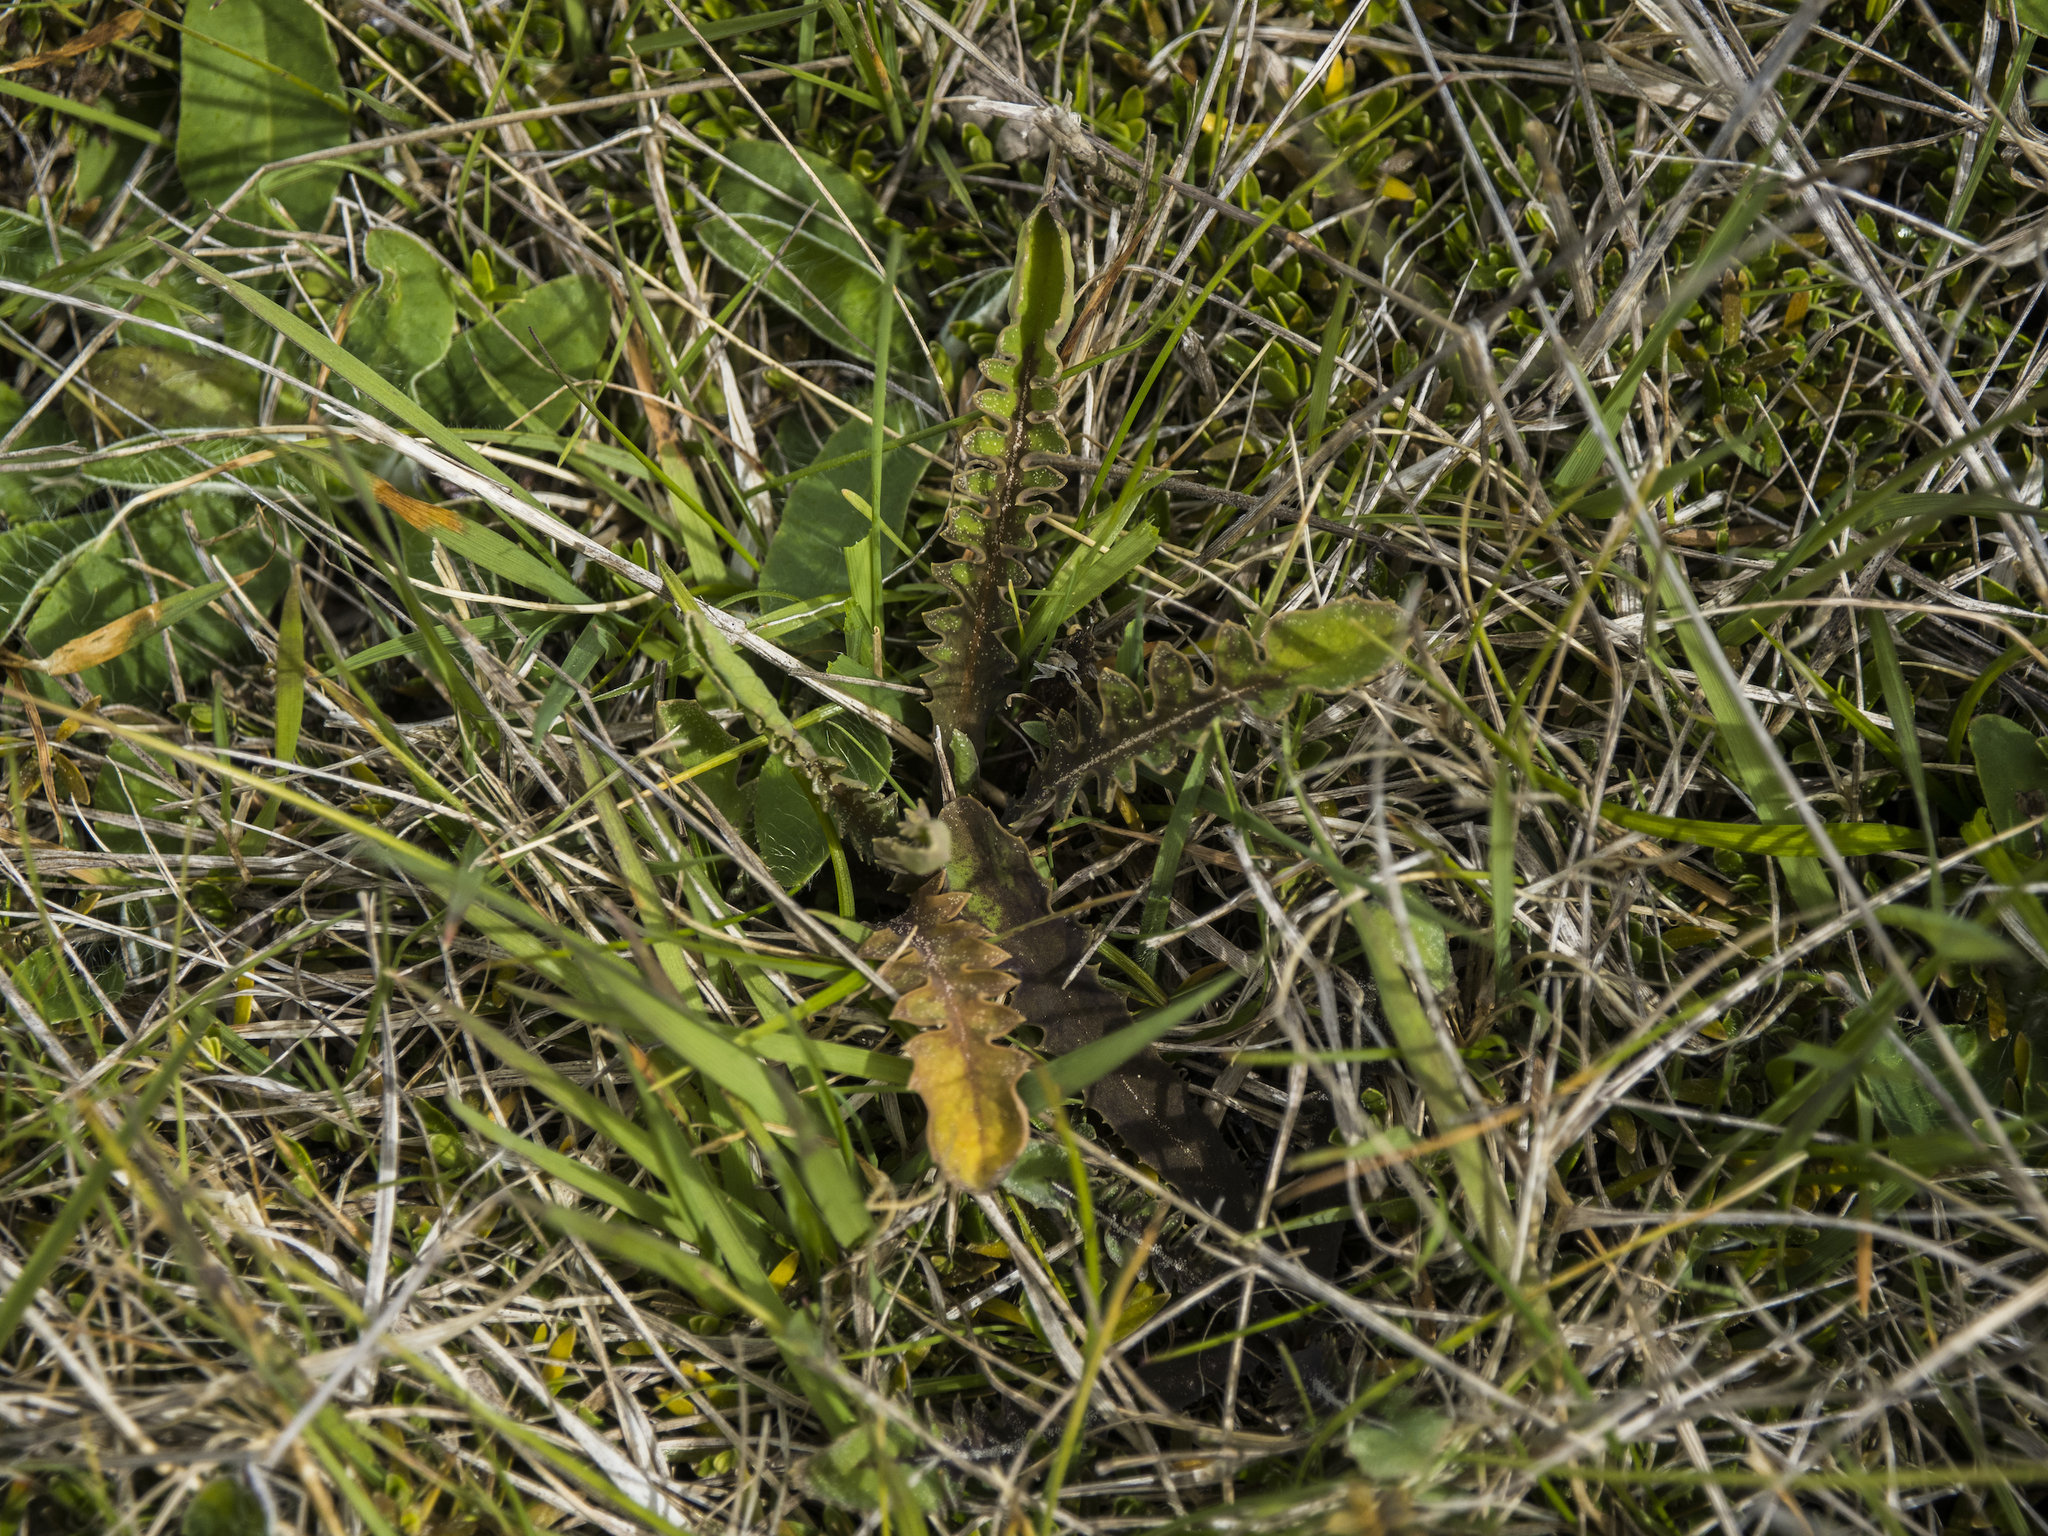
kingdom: Plantae
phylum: Tracheophyta
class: Magnoliopsida
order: Asterales
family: Asteraceae
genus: Sonchus
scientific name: Sonchus novae-zelandiae
